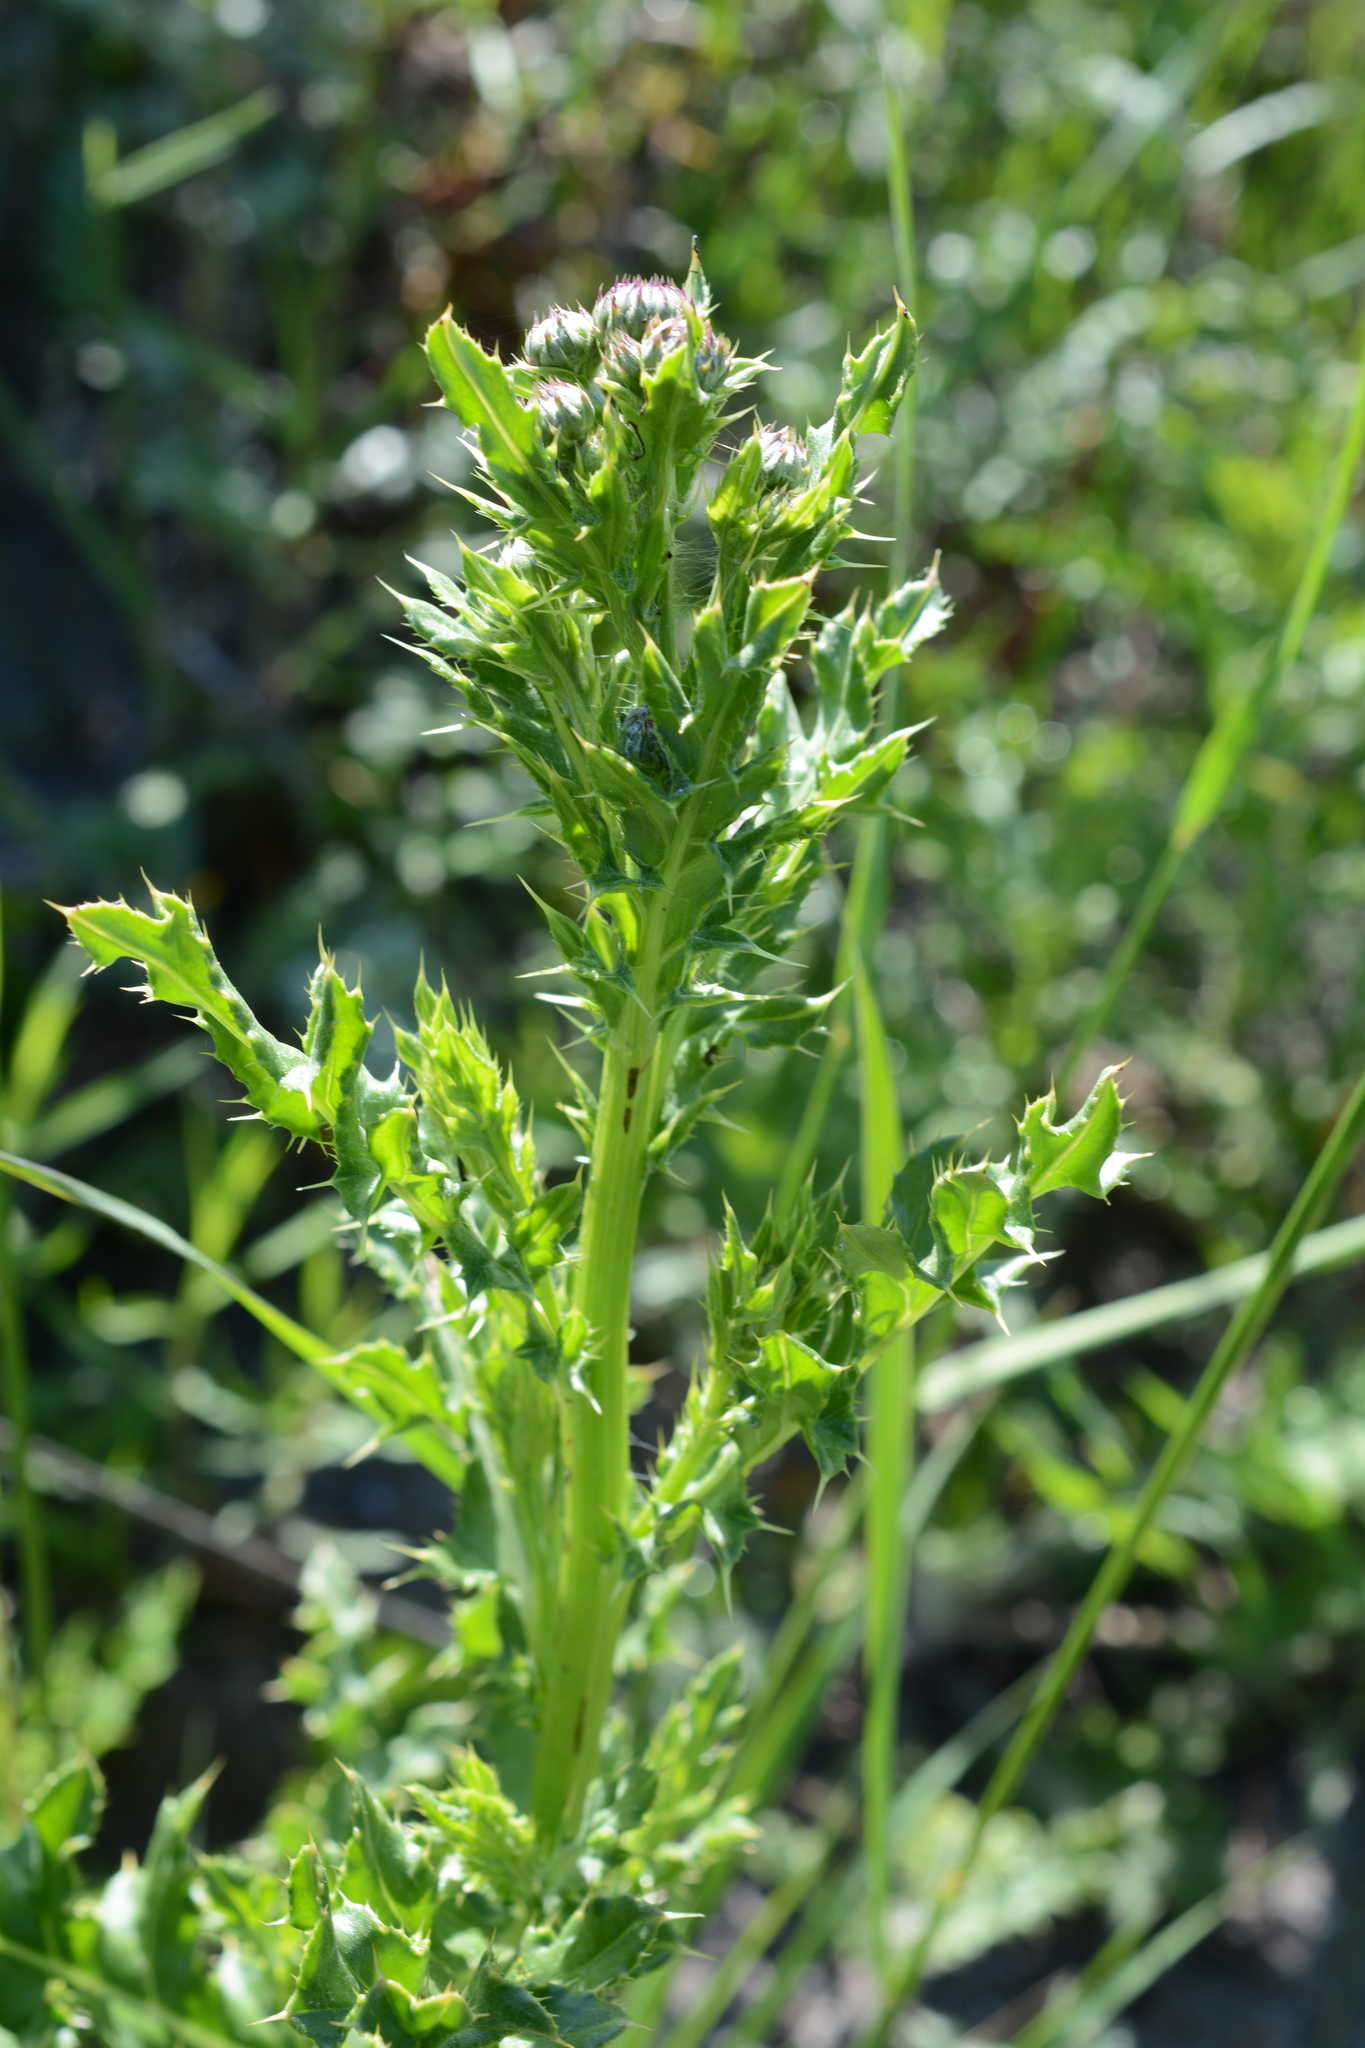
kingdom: Plantae
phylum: Tracheophyta
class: Magnoliopsida
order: Asterales
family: Asteraceae
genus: Cirsium
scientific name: Cirsium arvense
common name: Creeping thistle
